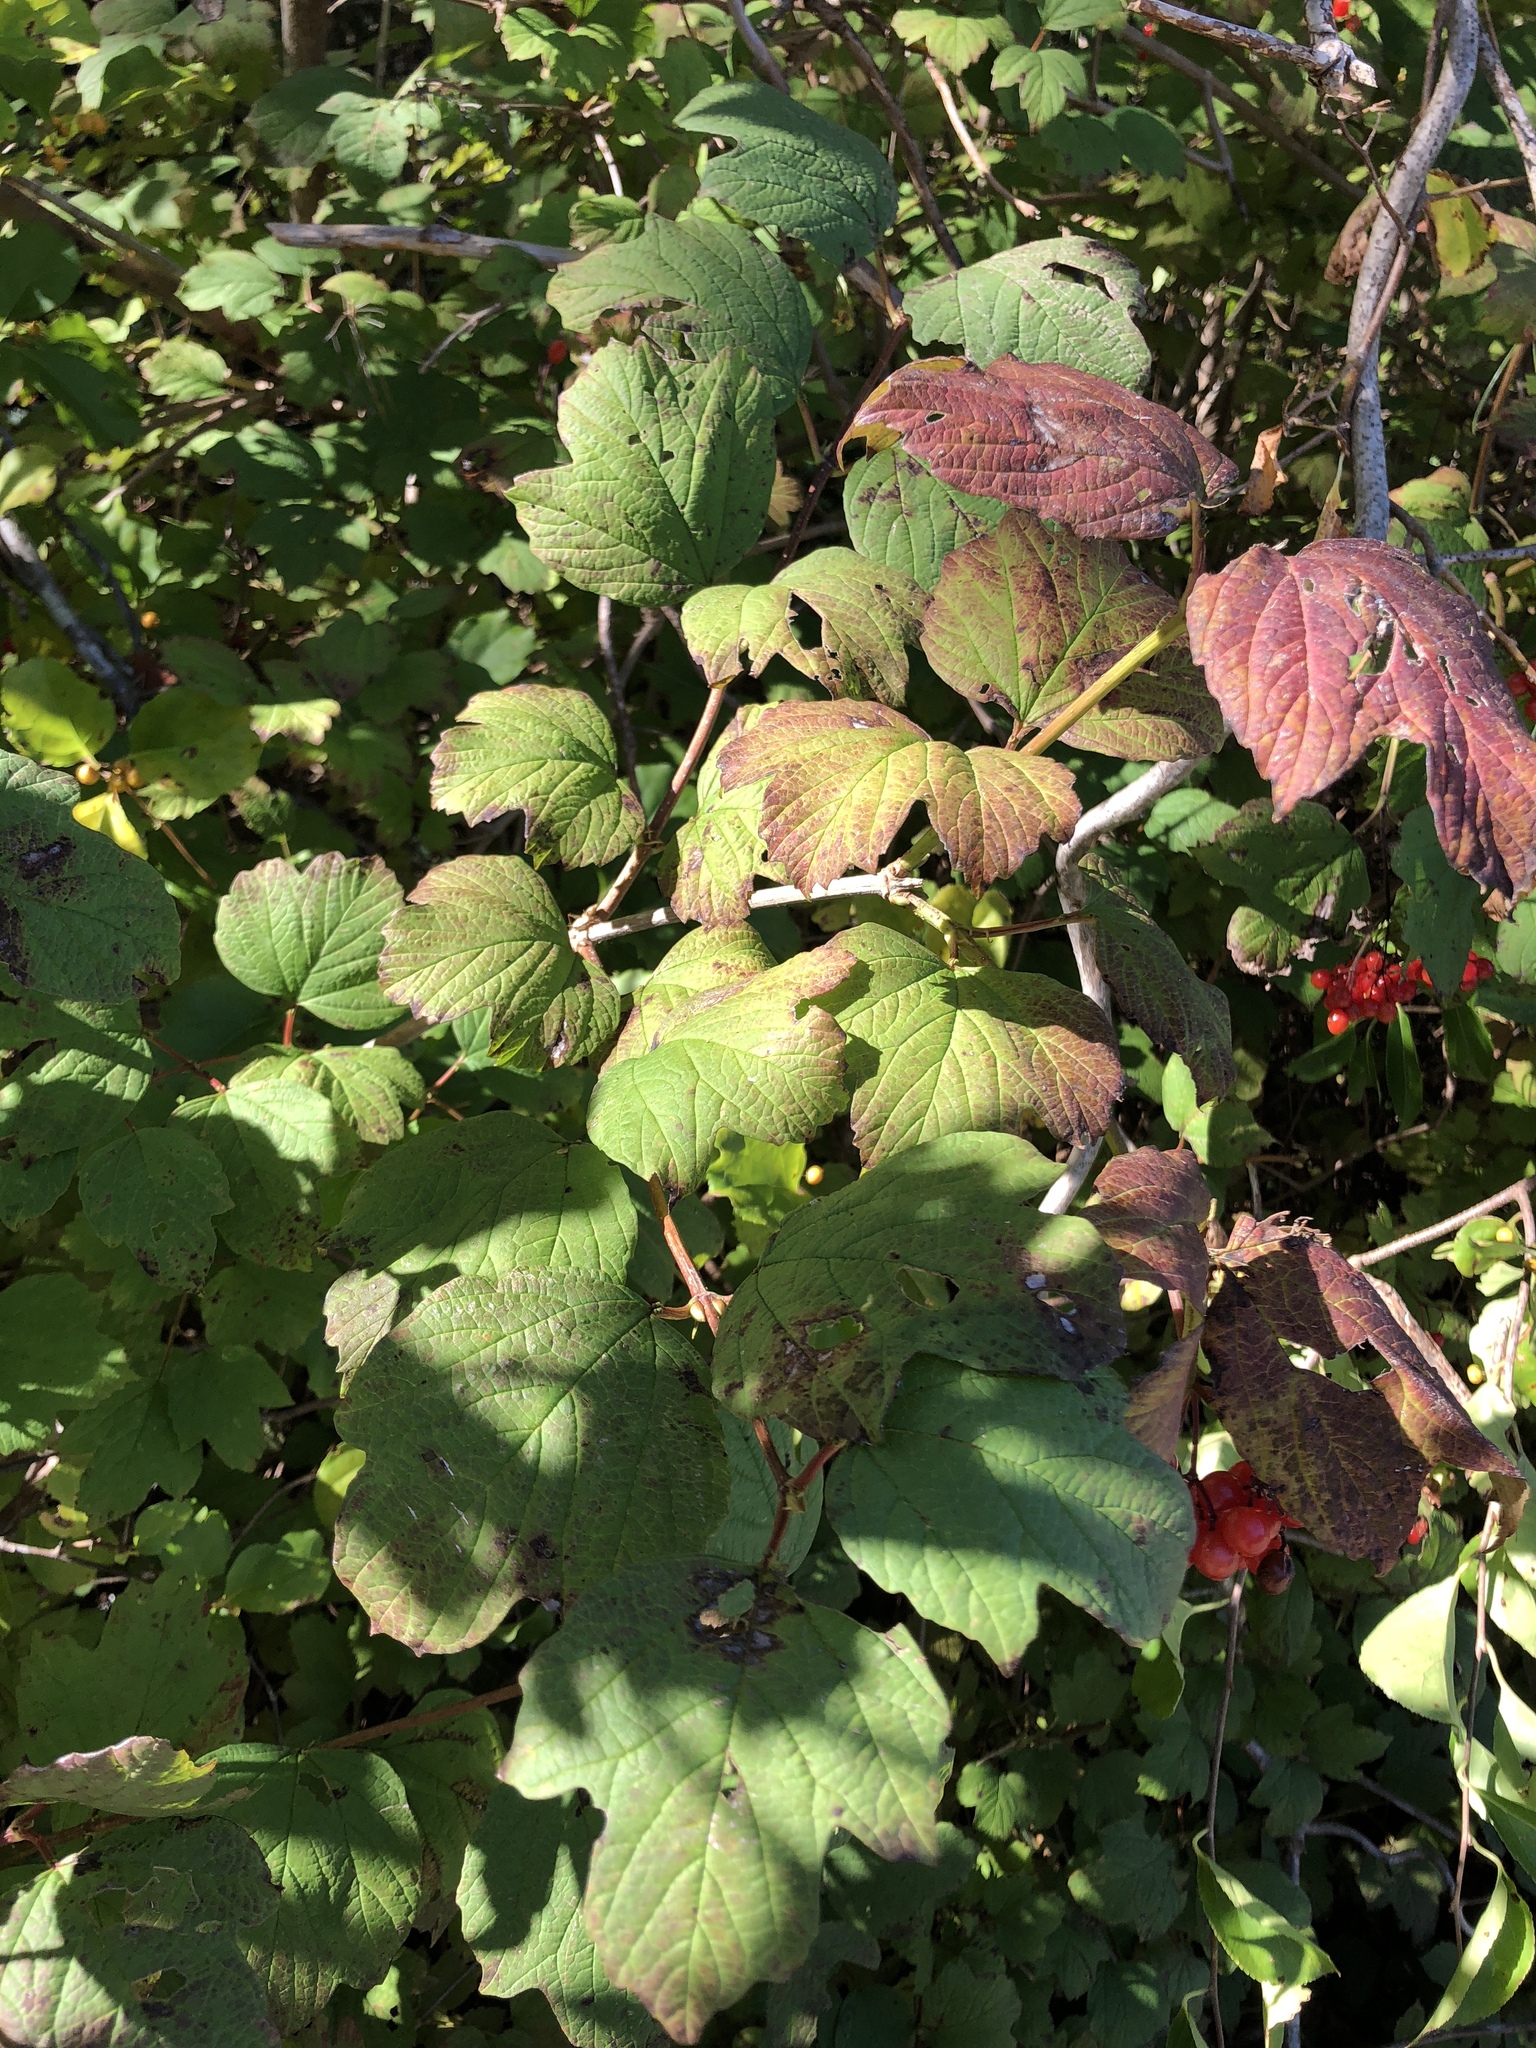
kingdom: Plantae
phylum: Tracheophyta
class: Magnoliopsida
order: Dipsacales
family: Viburnaceae
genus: Viburnum
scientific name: Viburnum opulus
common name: Guelder-rose
